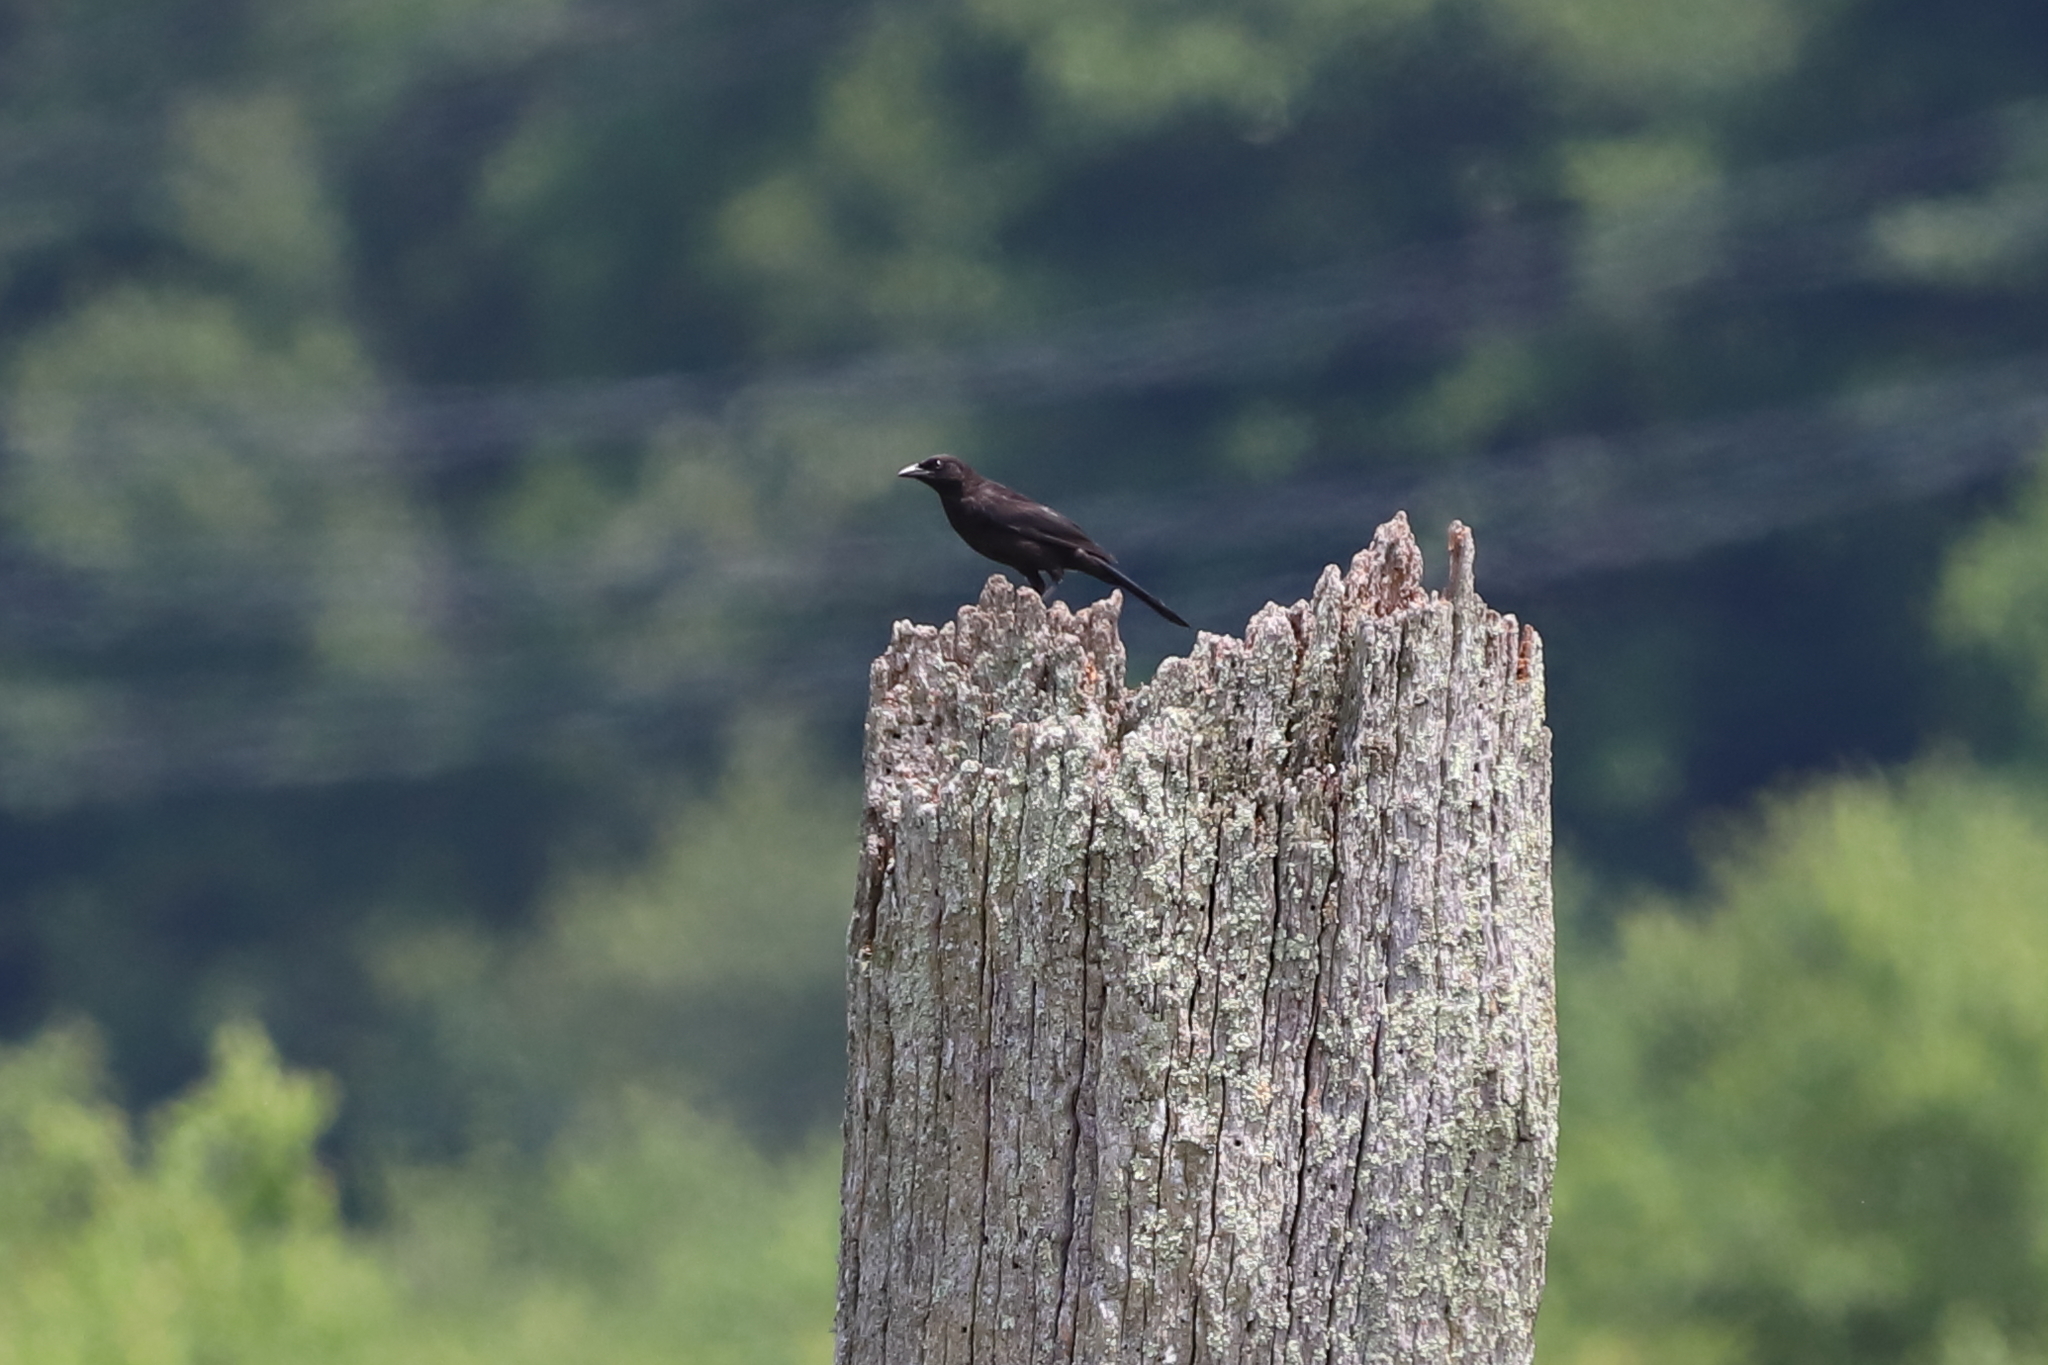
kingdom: Animalia
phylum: Chordata
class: Aves
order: Passeriformes
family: Icteridae
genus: Quiscalus
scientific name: Quiscalus quiscula
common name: Common grackle
